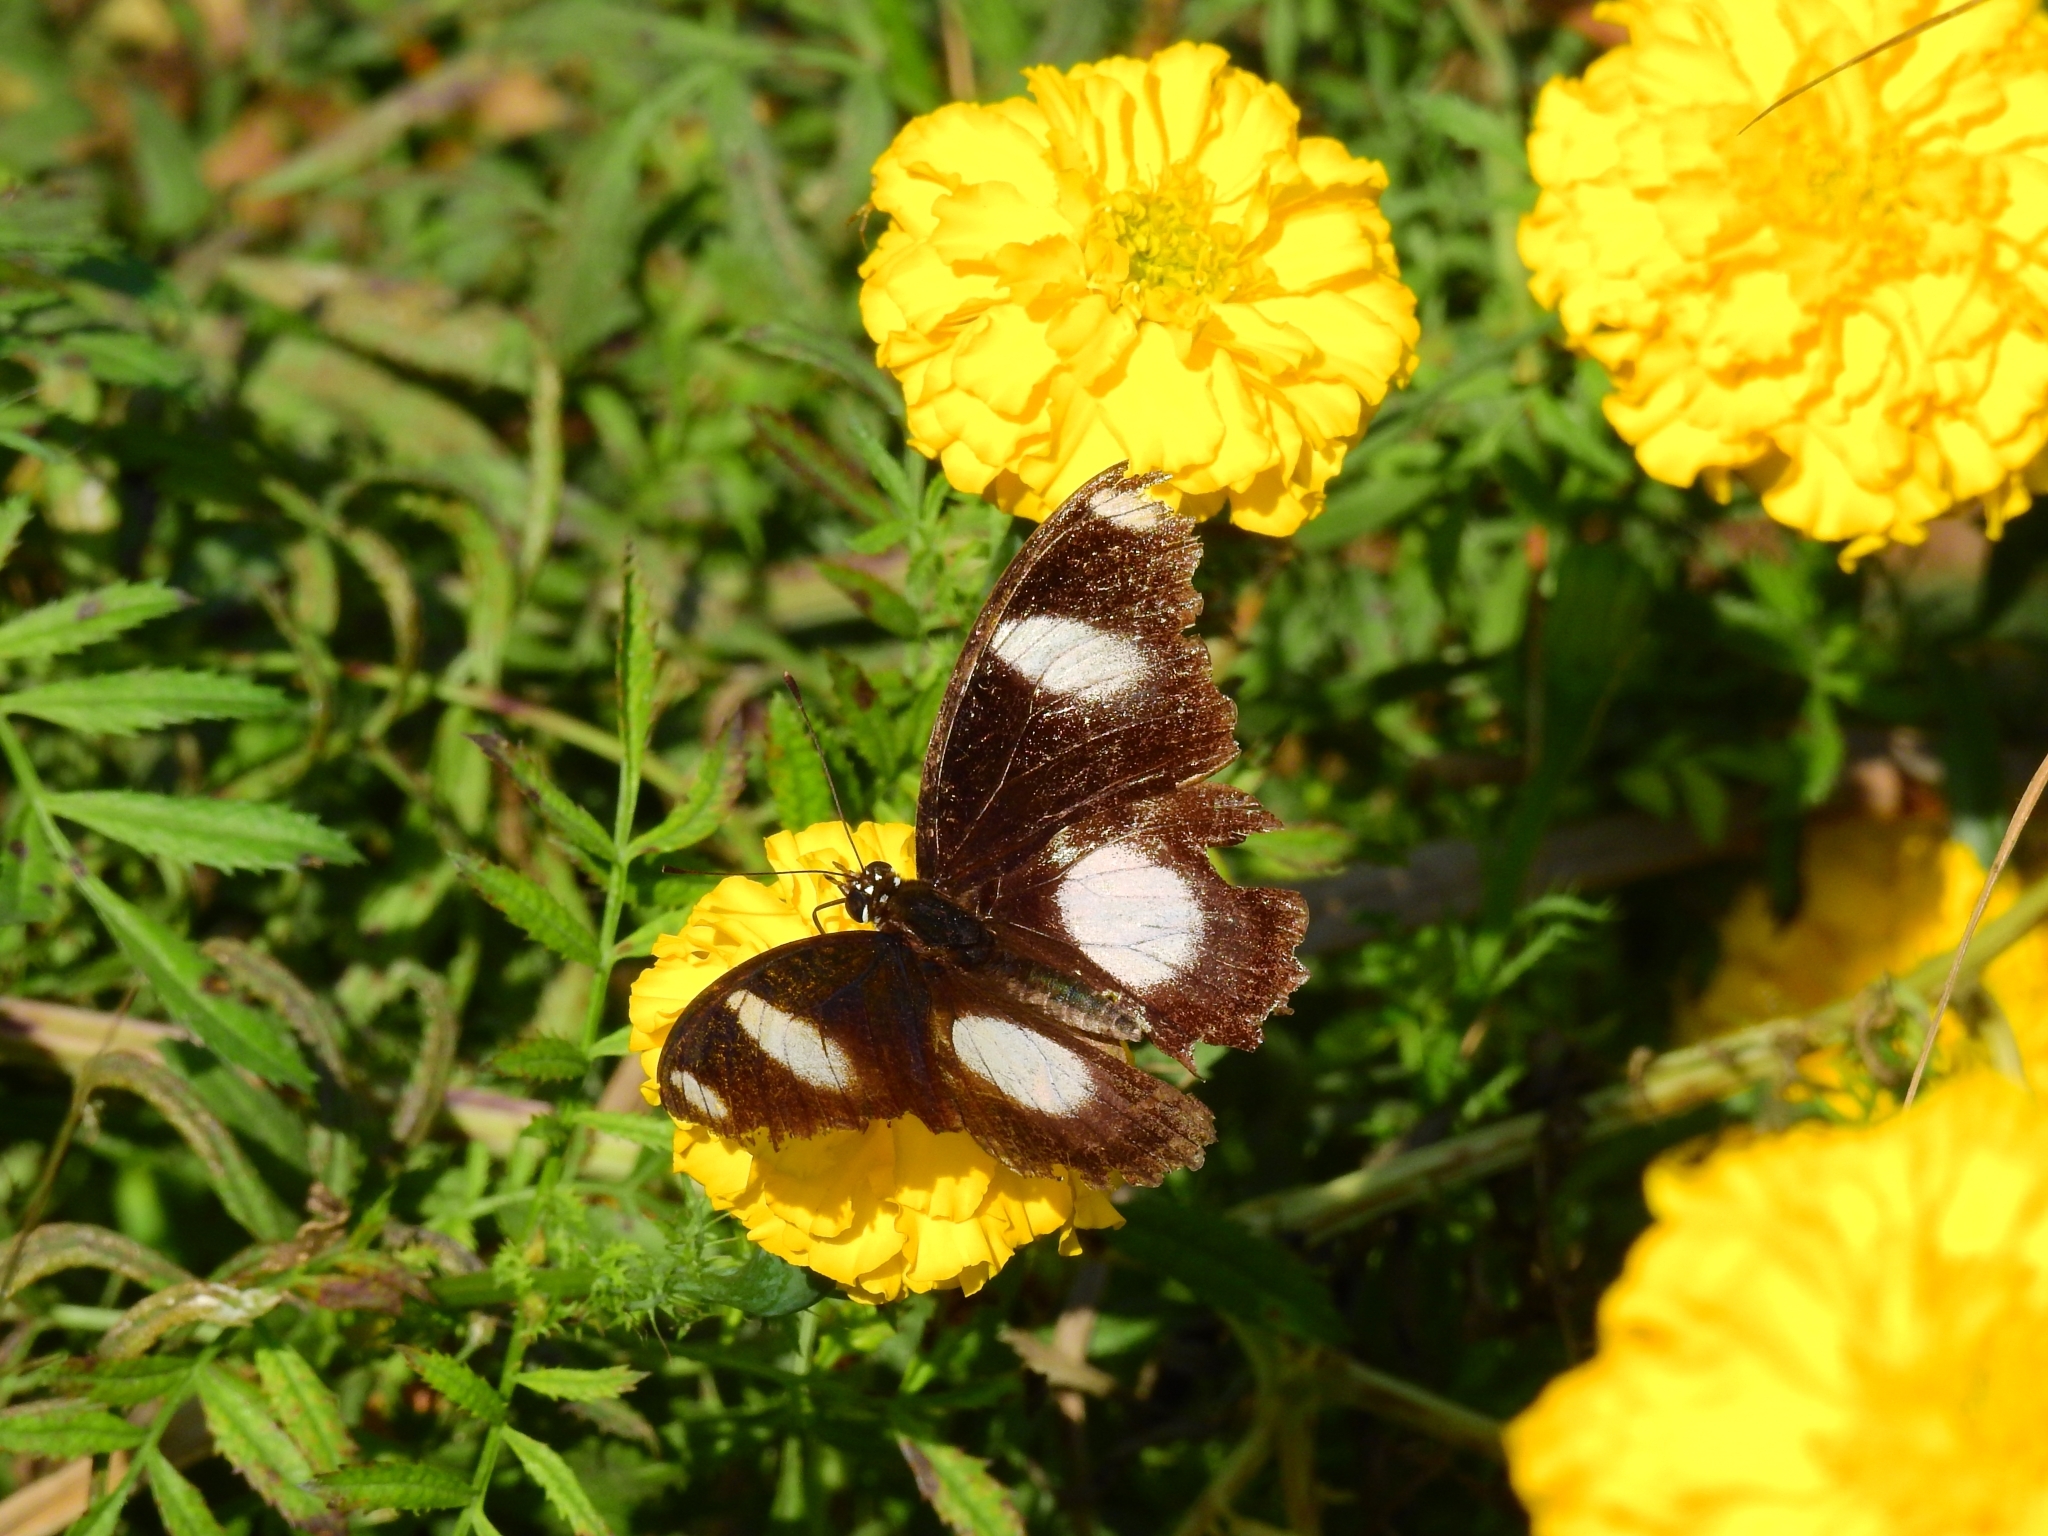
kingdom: Animalia
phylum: Arthropoda
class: Insecta
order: Lepidoptera
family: Nymphalidae
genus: Hypolimnas
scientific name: Hypolimnas misippus
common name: False plain tiger
